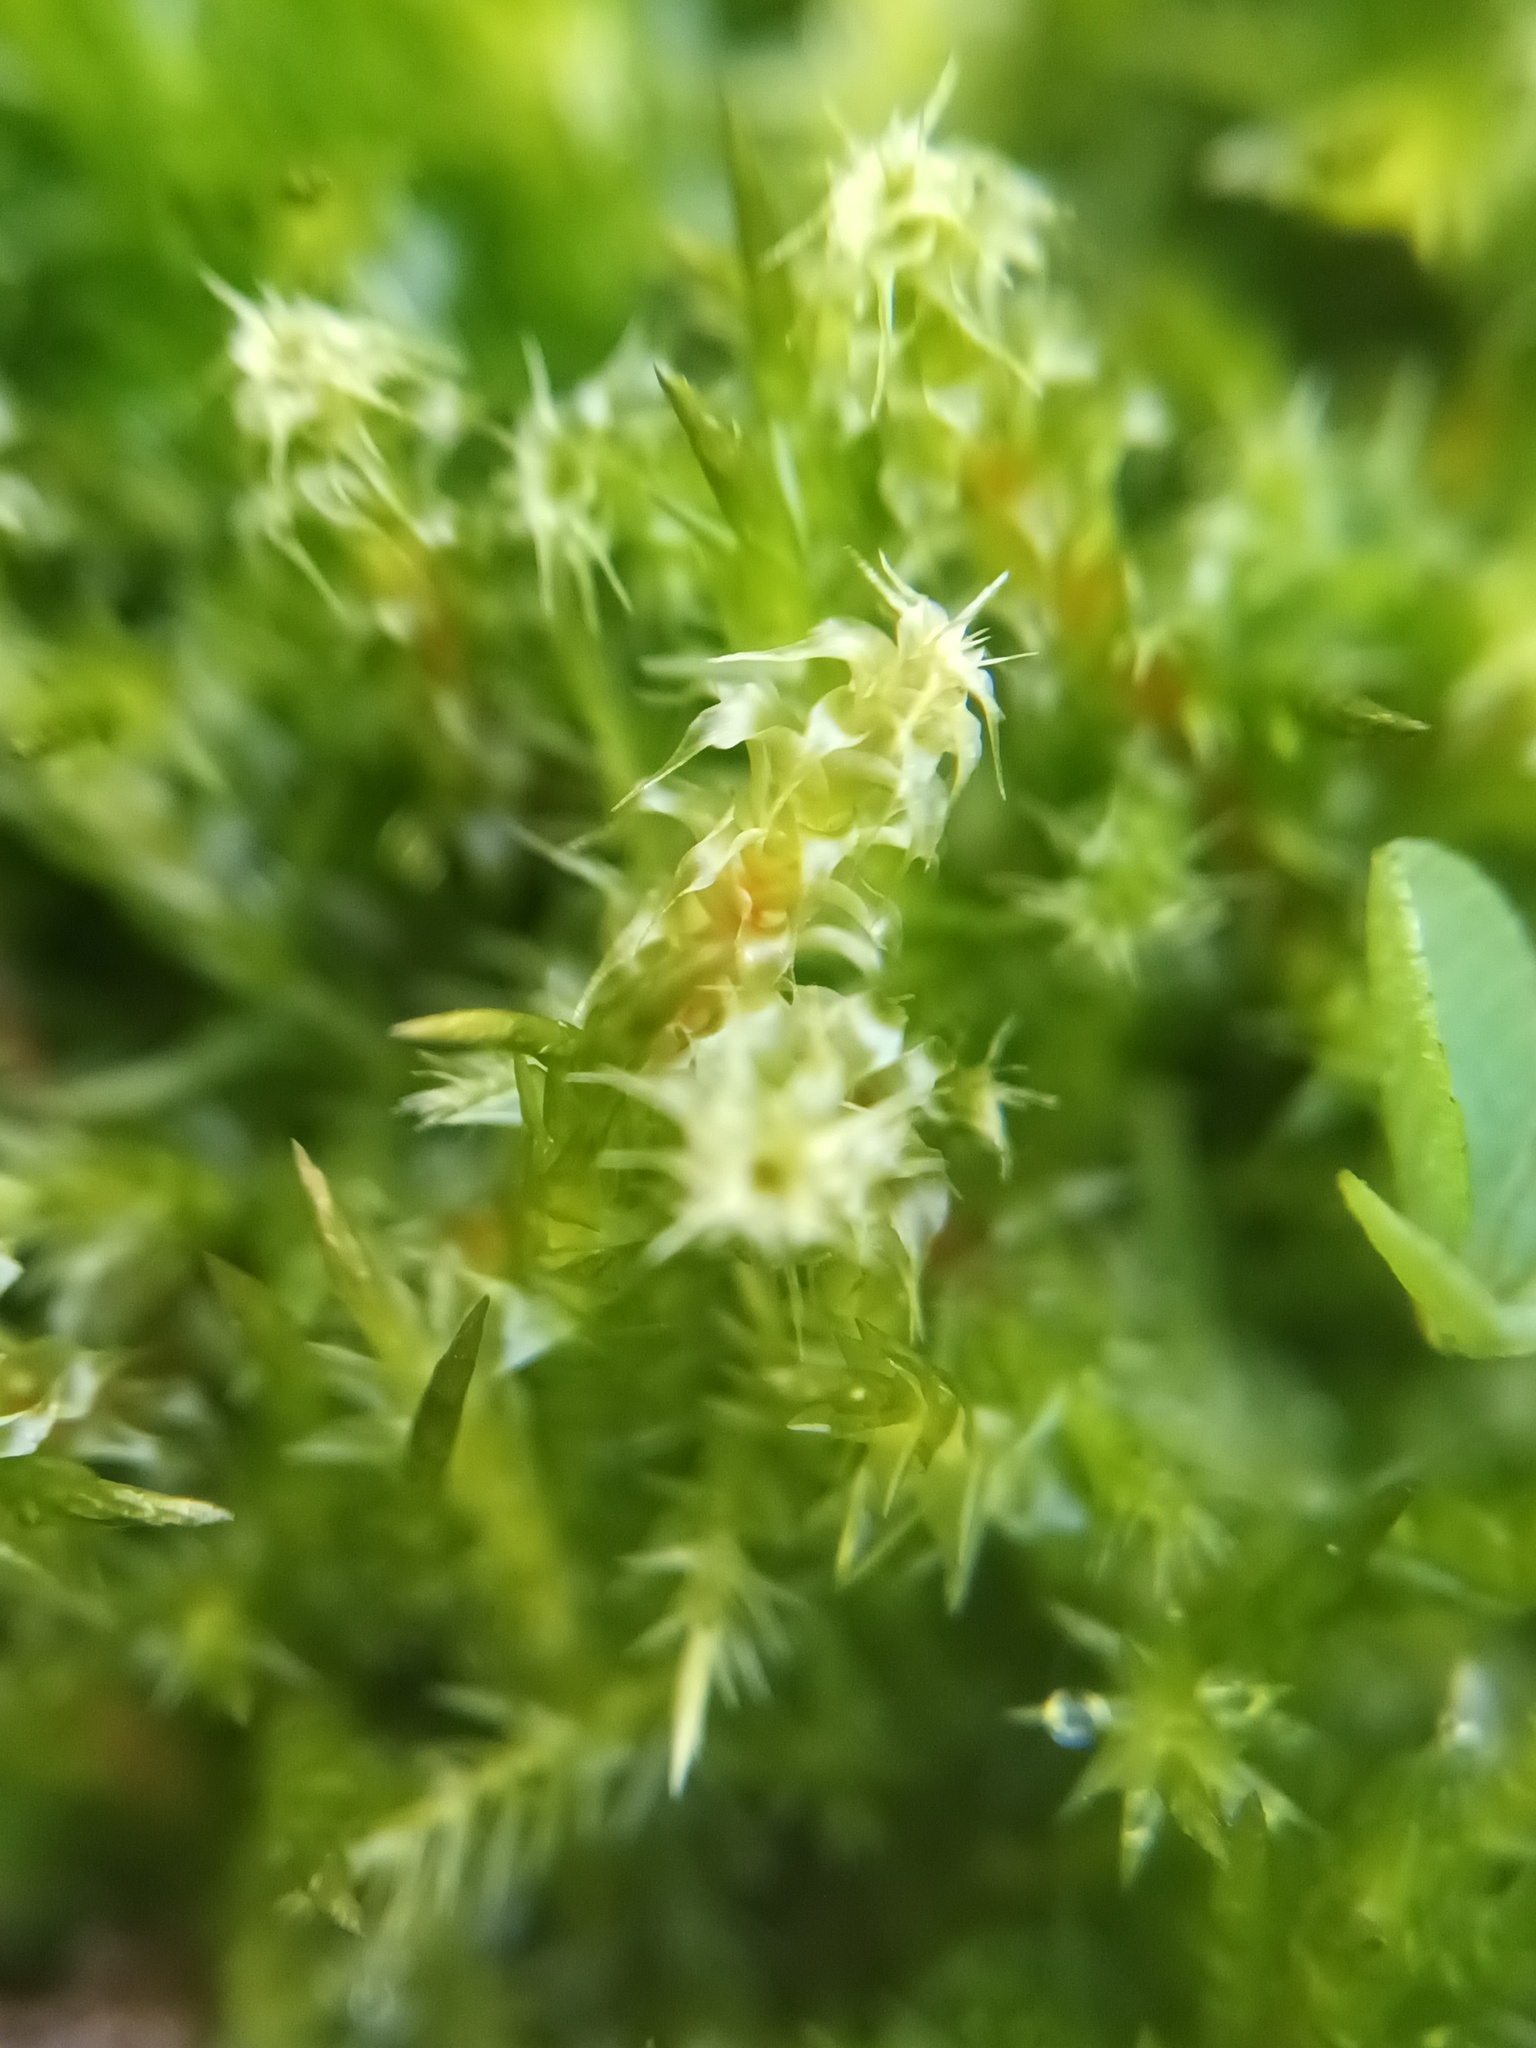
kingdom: Plantae
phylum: Bryophyta
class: Bryopsida
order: Hypnales
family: Hylocomiaceae
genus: Rhytidiadelphus
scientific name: Rhytidiadelphus squarrosus
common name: Springy turf-moss
